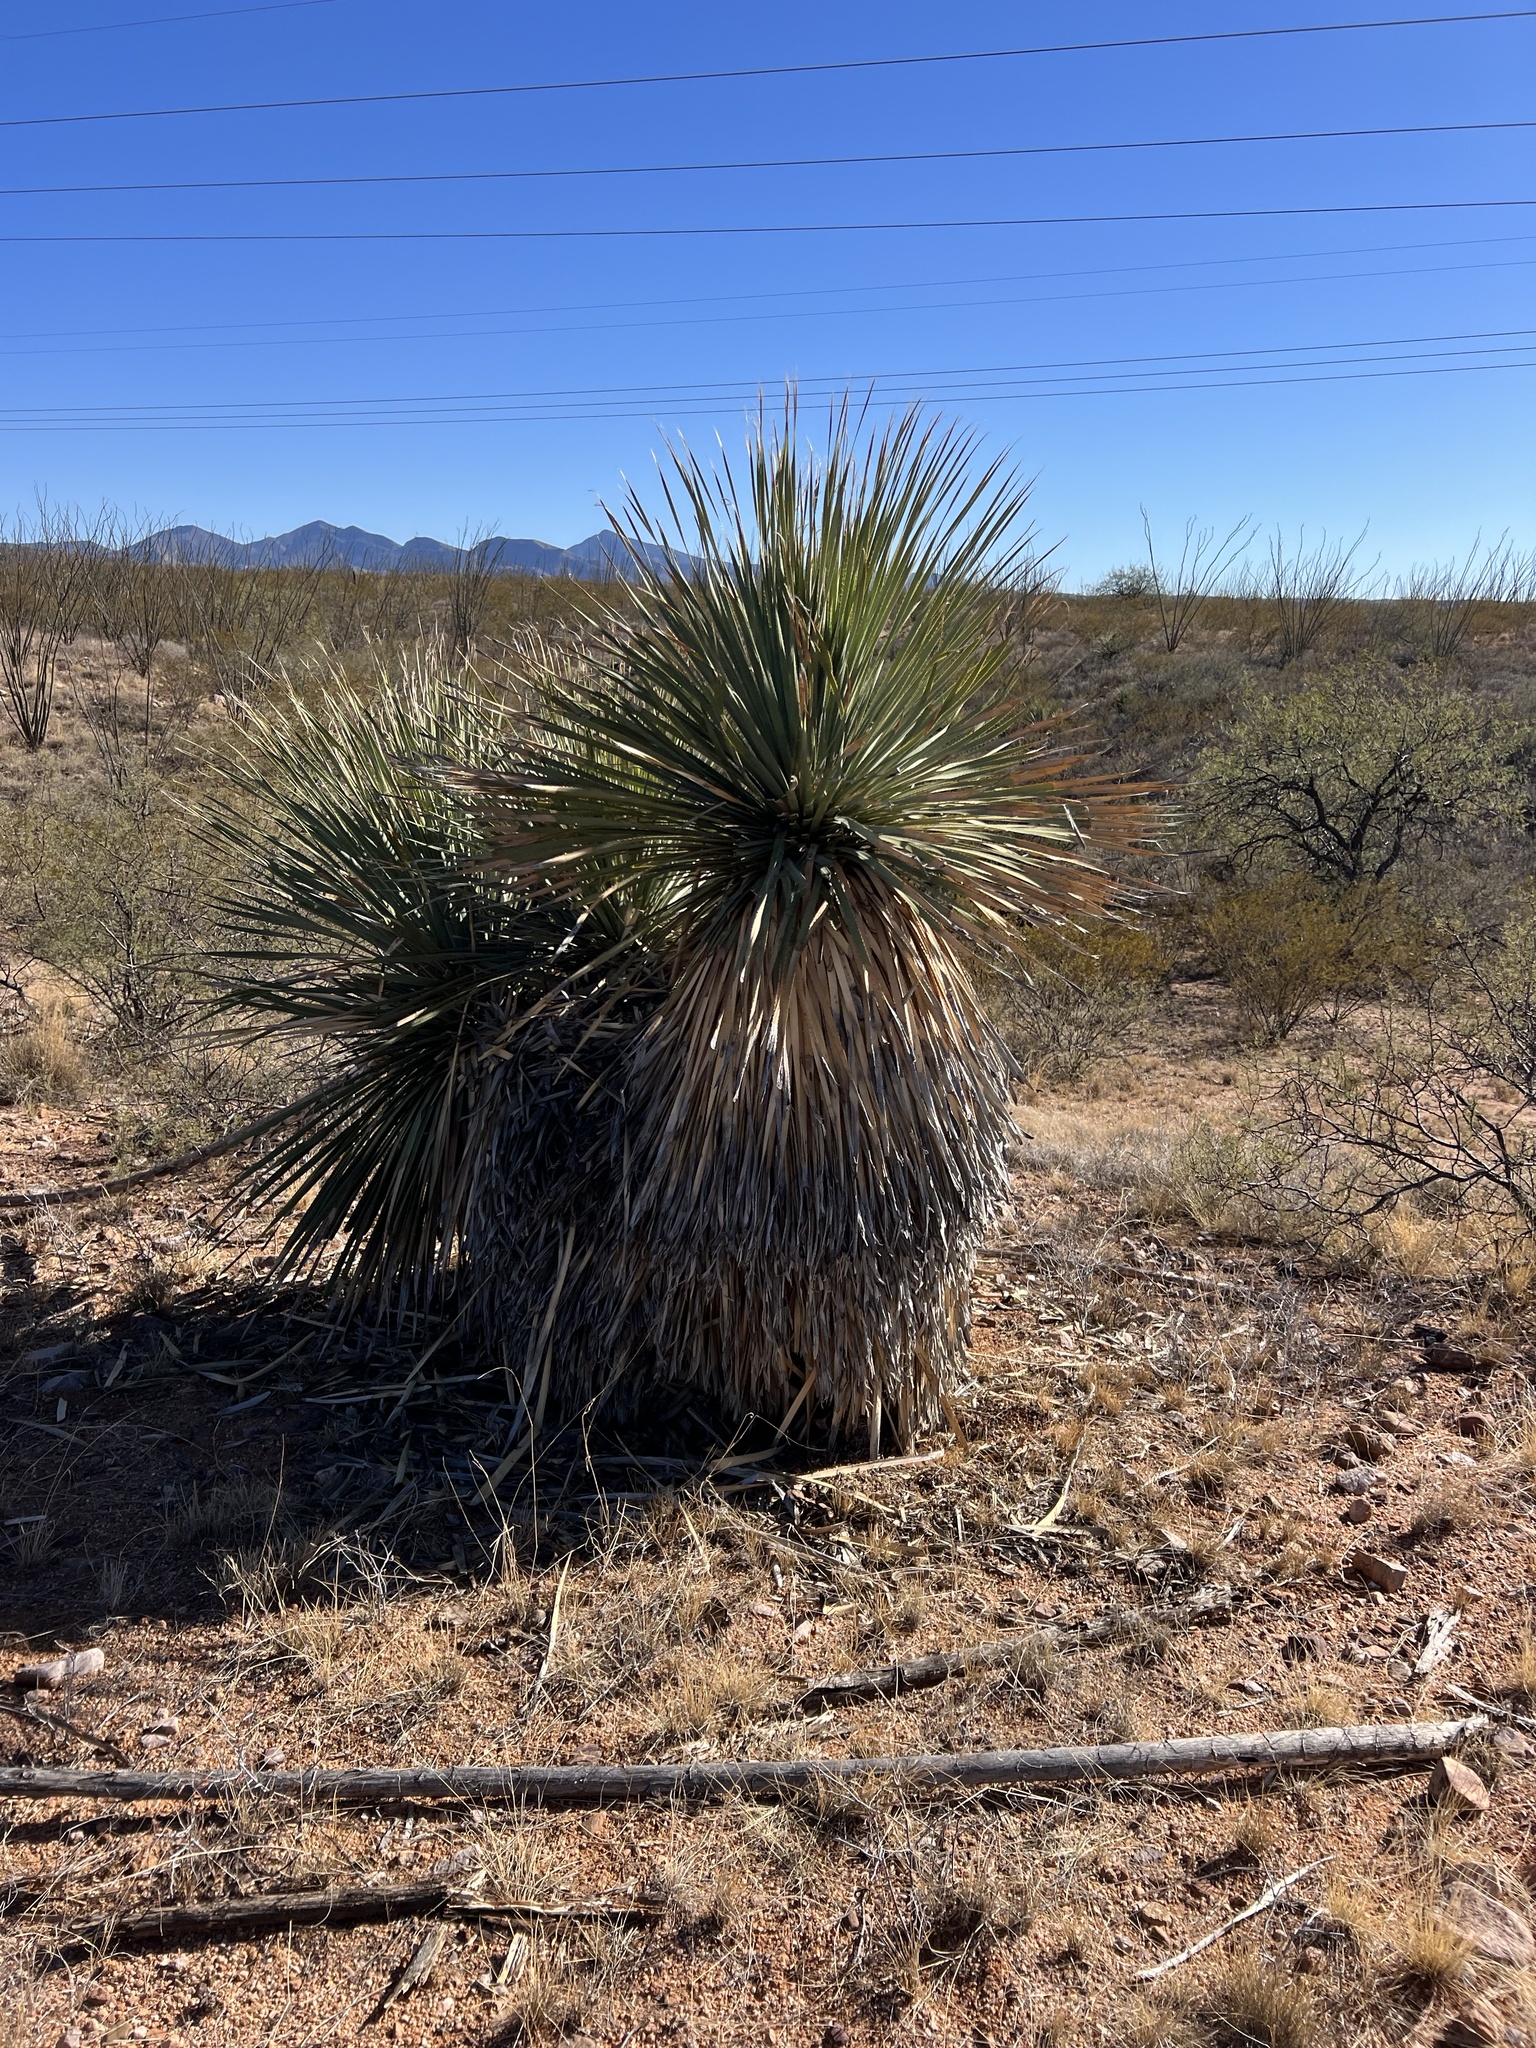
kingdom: Plantae
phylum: Tracheophyta
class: Liliopsida
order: Asparagales
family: Asparagaceae
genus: Dasylirion
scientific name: Dasylirion wheeleri
